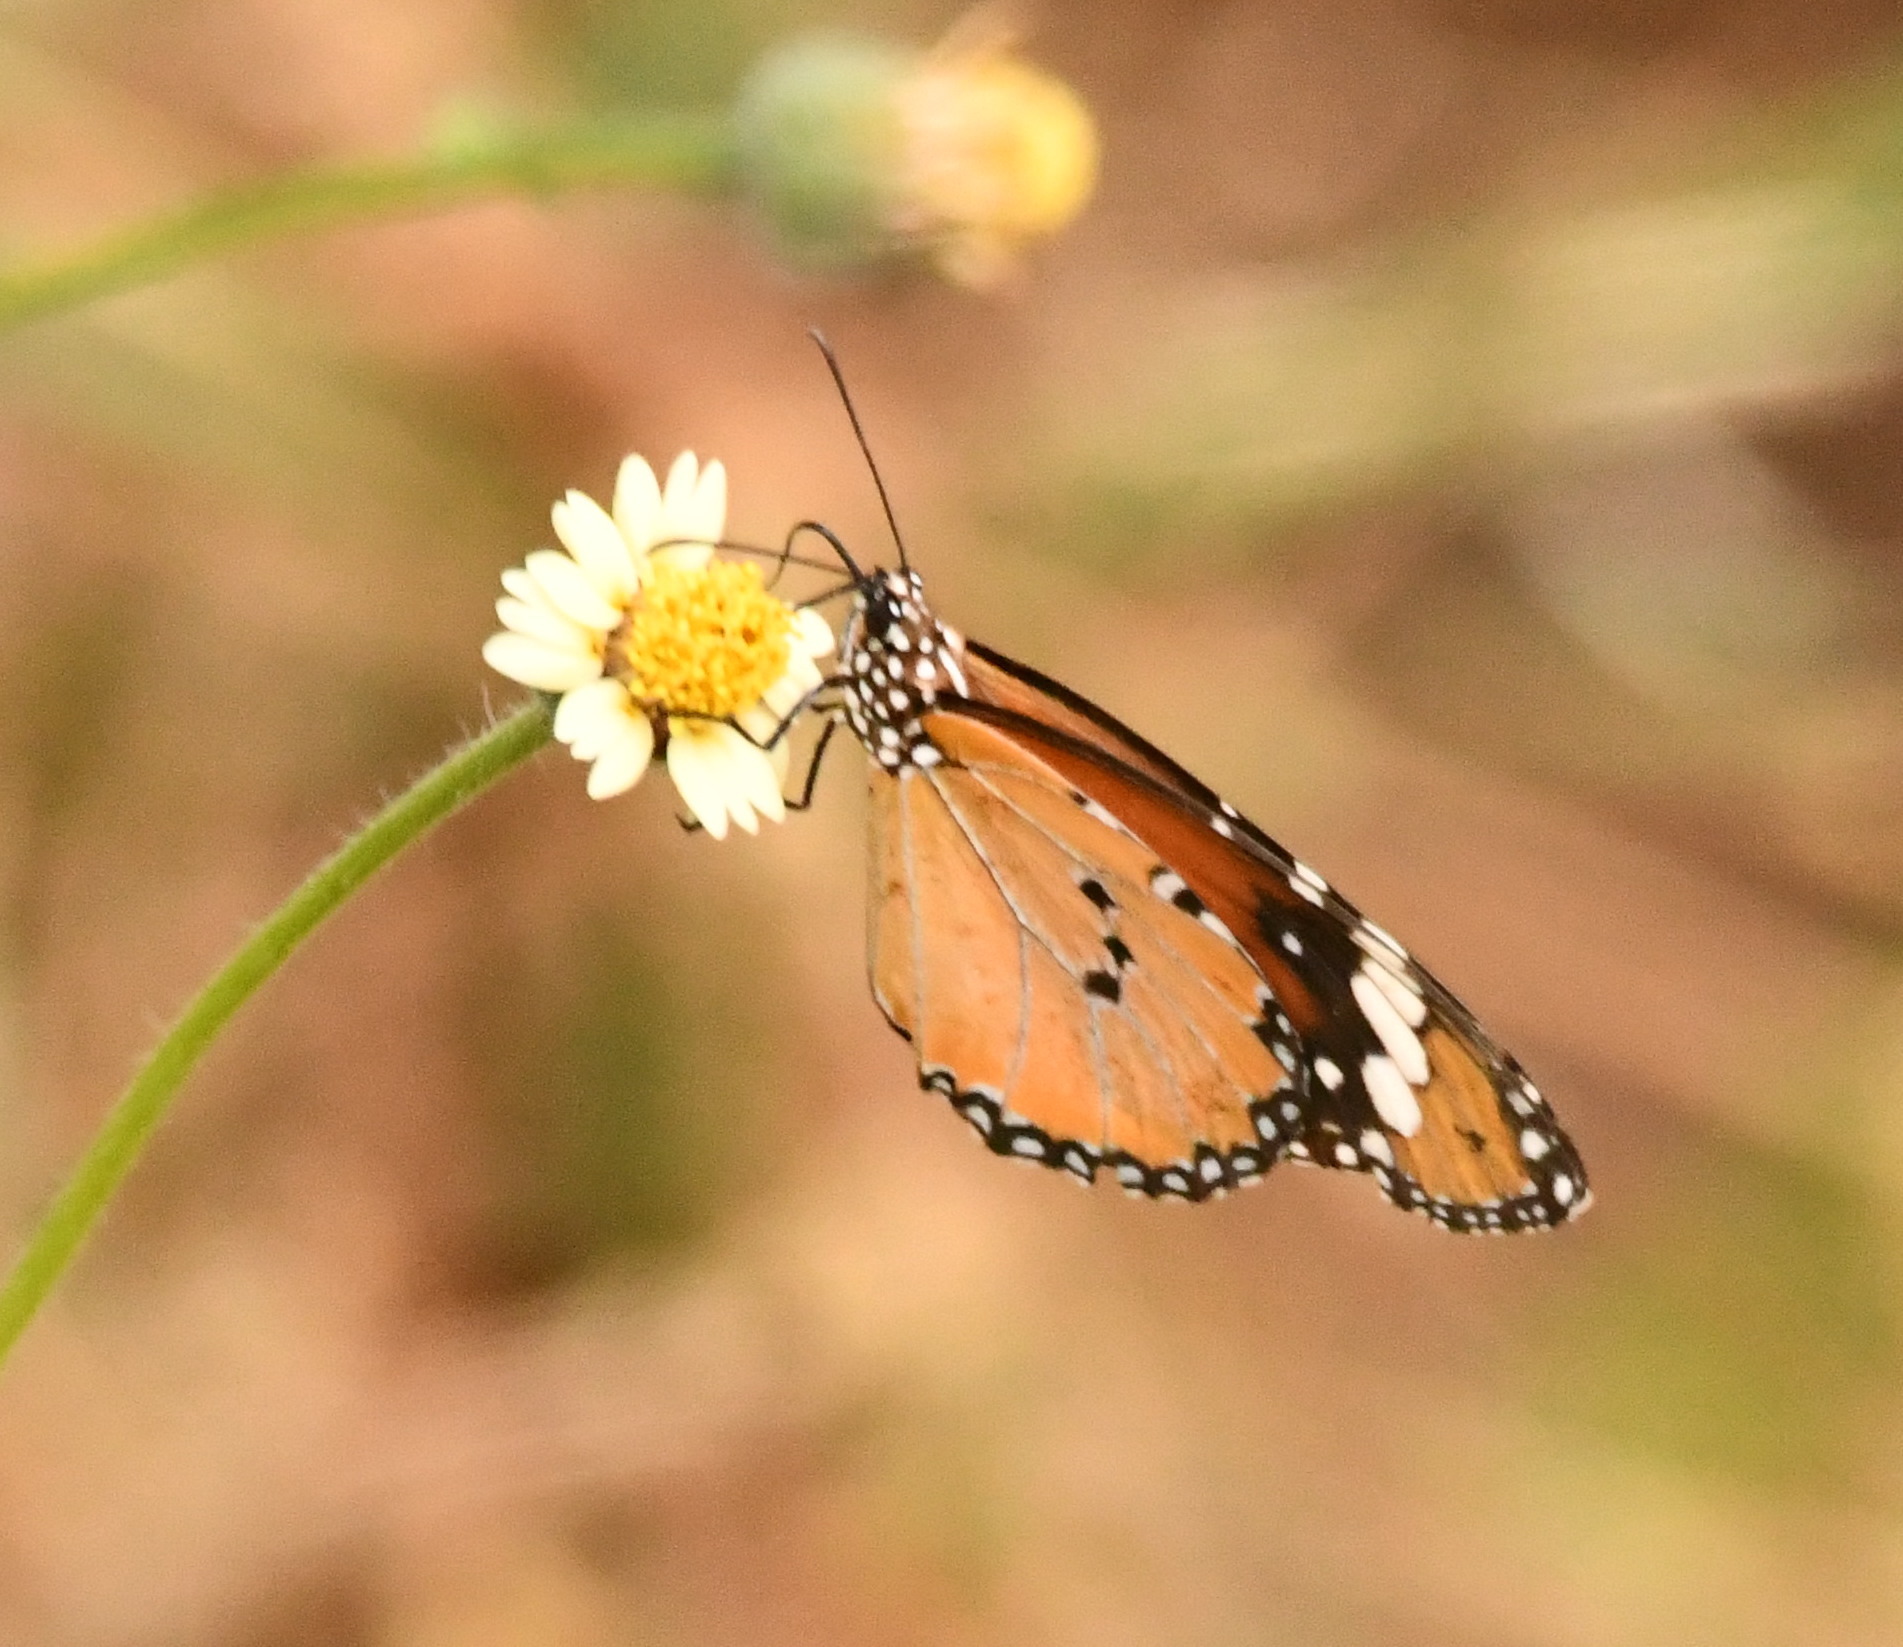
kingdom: Animalia
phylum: Arthropoda
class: Insecta
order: Lepidoptera
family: Nymphalidae
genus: Danaus
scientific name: Danaus chrysippus
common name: Plain tiger
